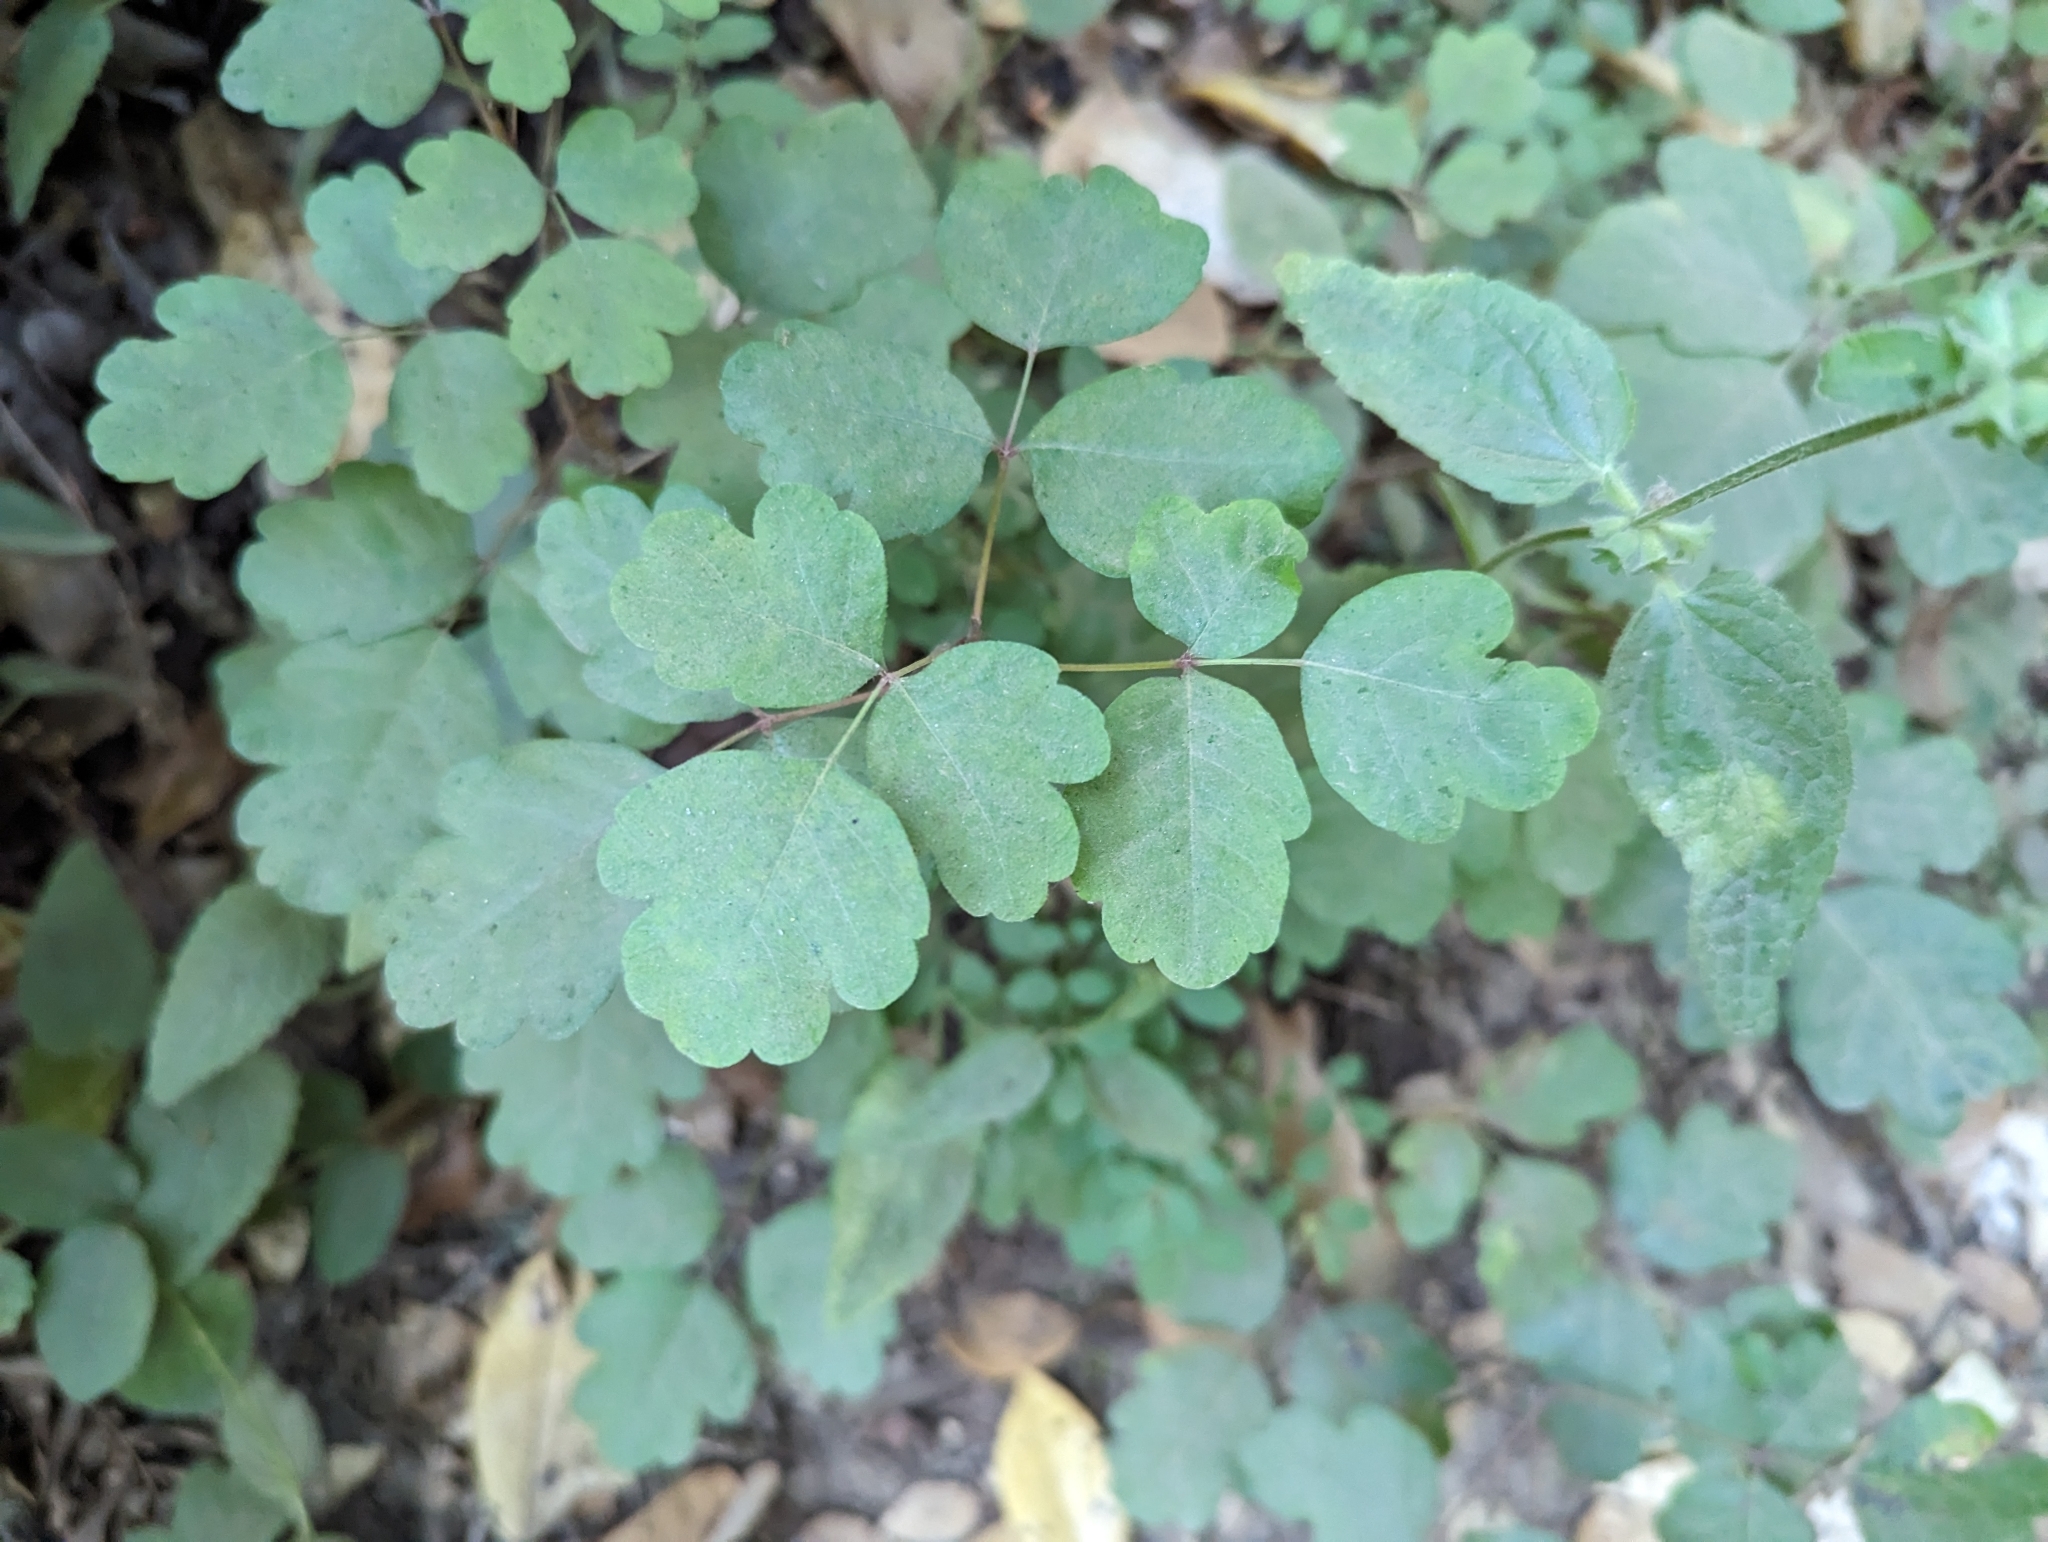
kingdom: Plantae
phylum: Tracheophyta
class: Magnoliopsida
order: Sapindales
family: Anacardiaceae
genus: Toxicodendron
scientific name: Toxicodendron diversilobum
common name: Pacific poison-oak
